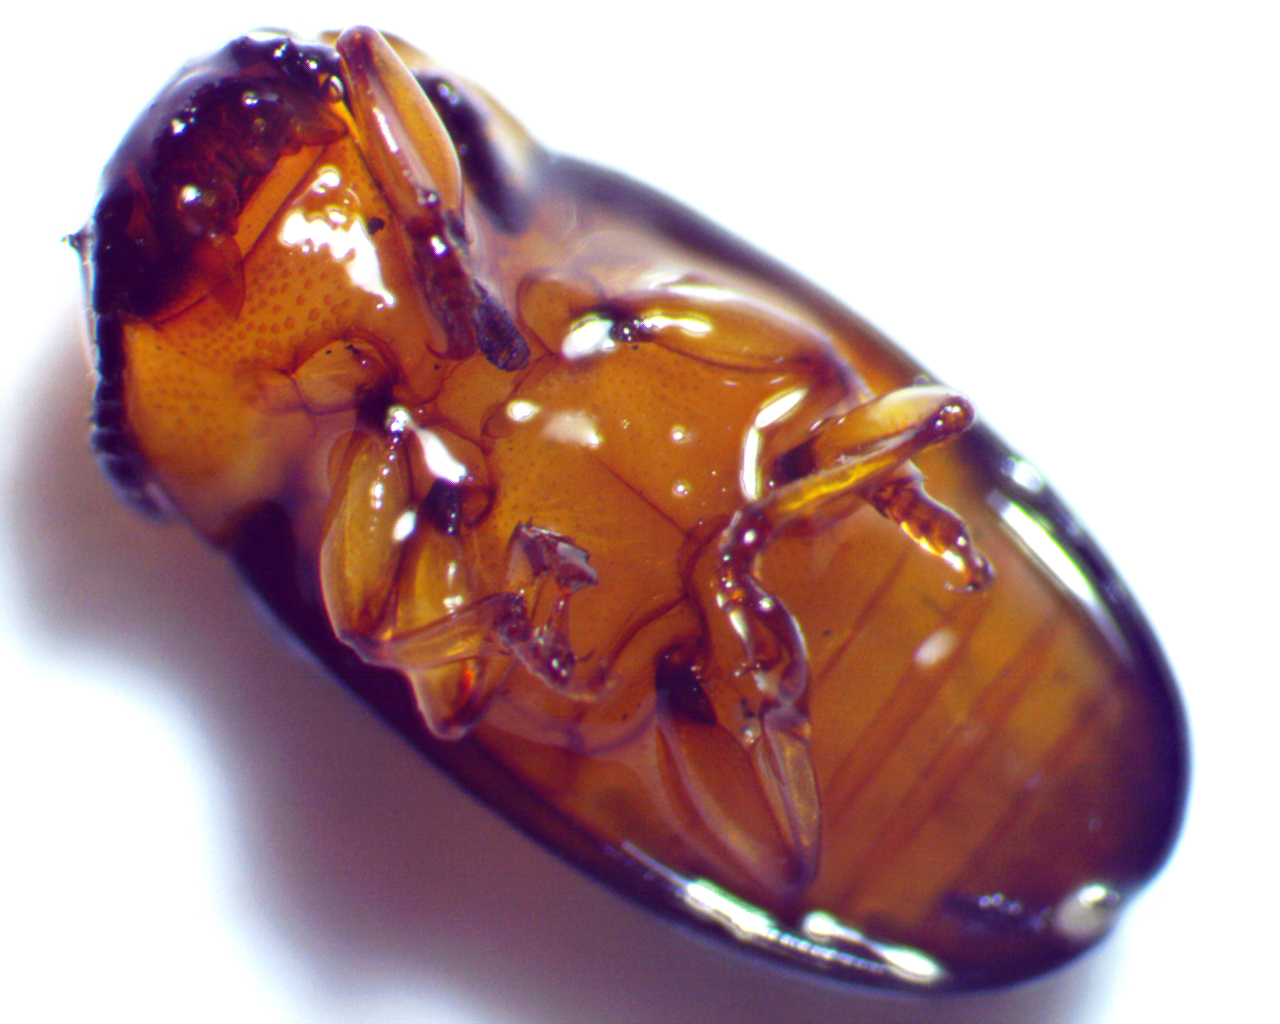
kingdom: Animalia
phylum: Arthropoda
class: Insecta
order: Coleoptera
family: Erotylidae
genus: Triplax
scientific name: Triplax festiva
